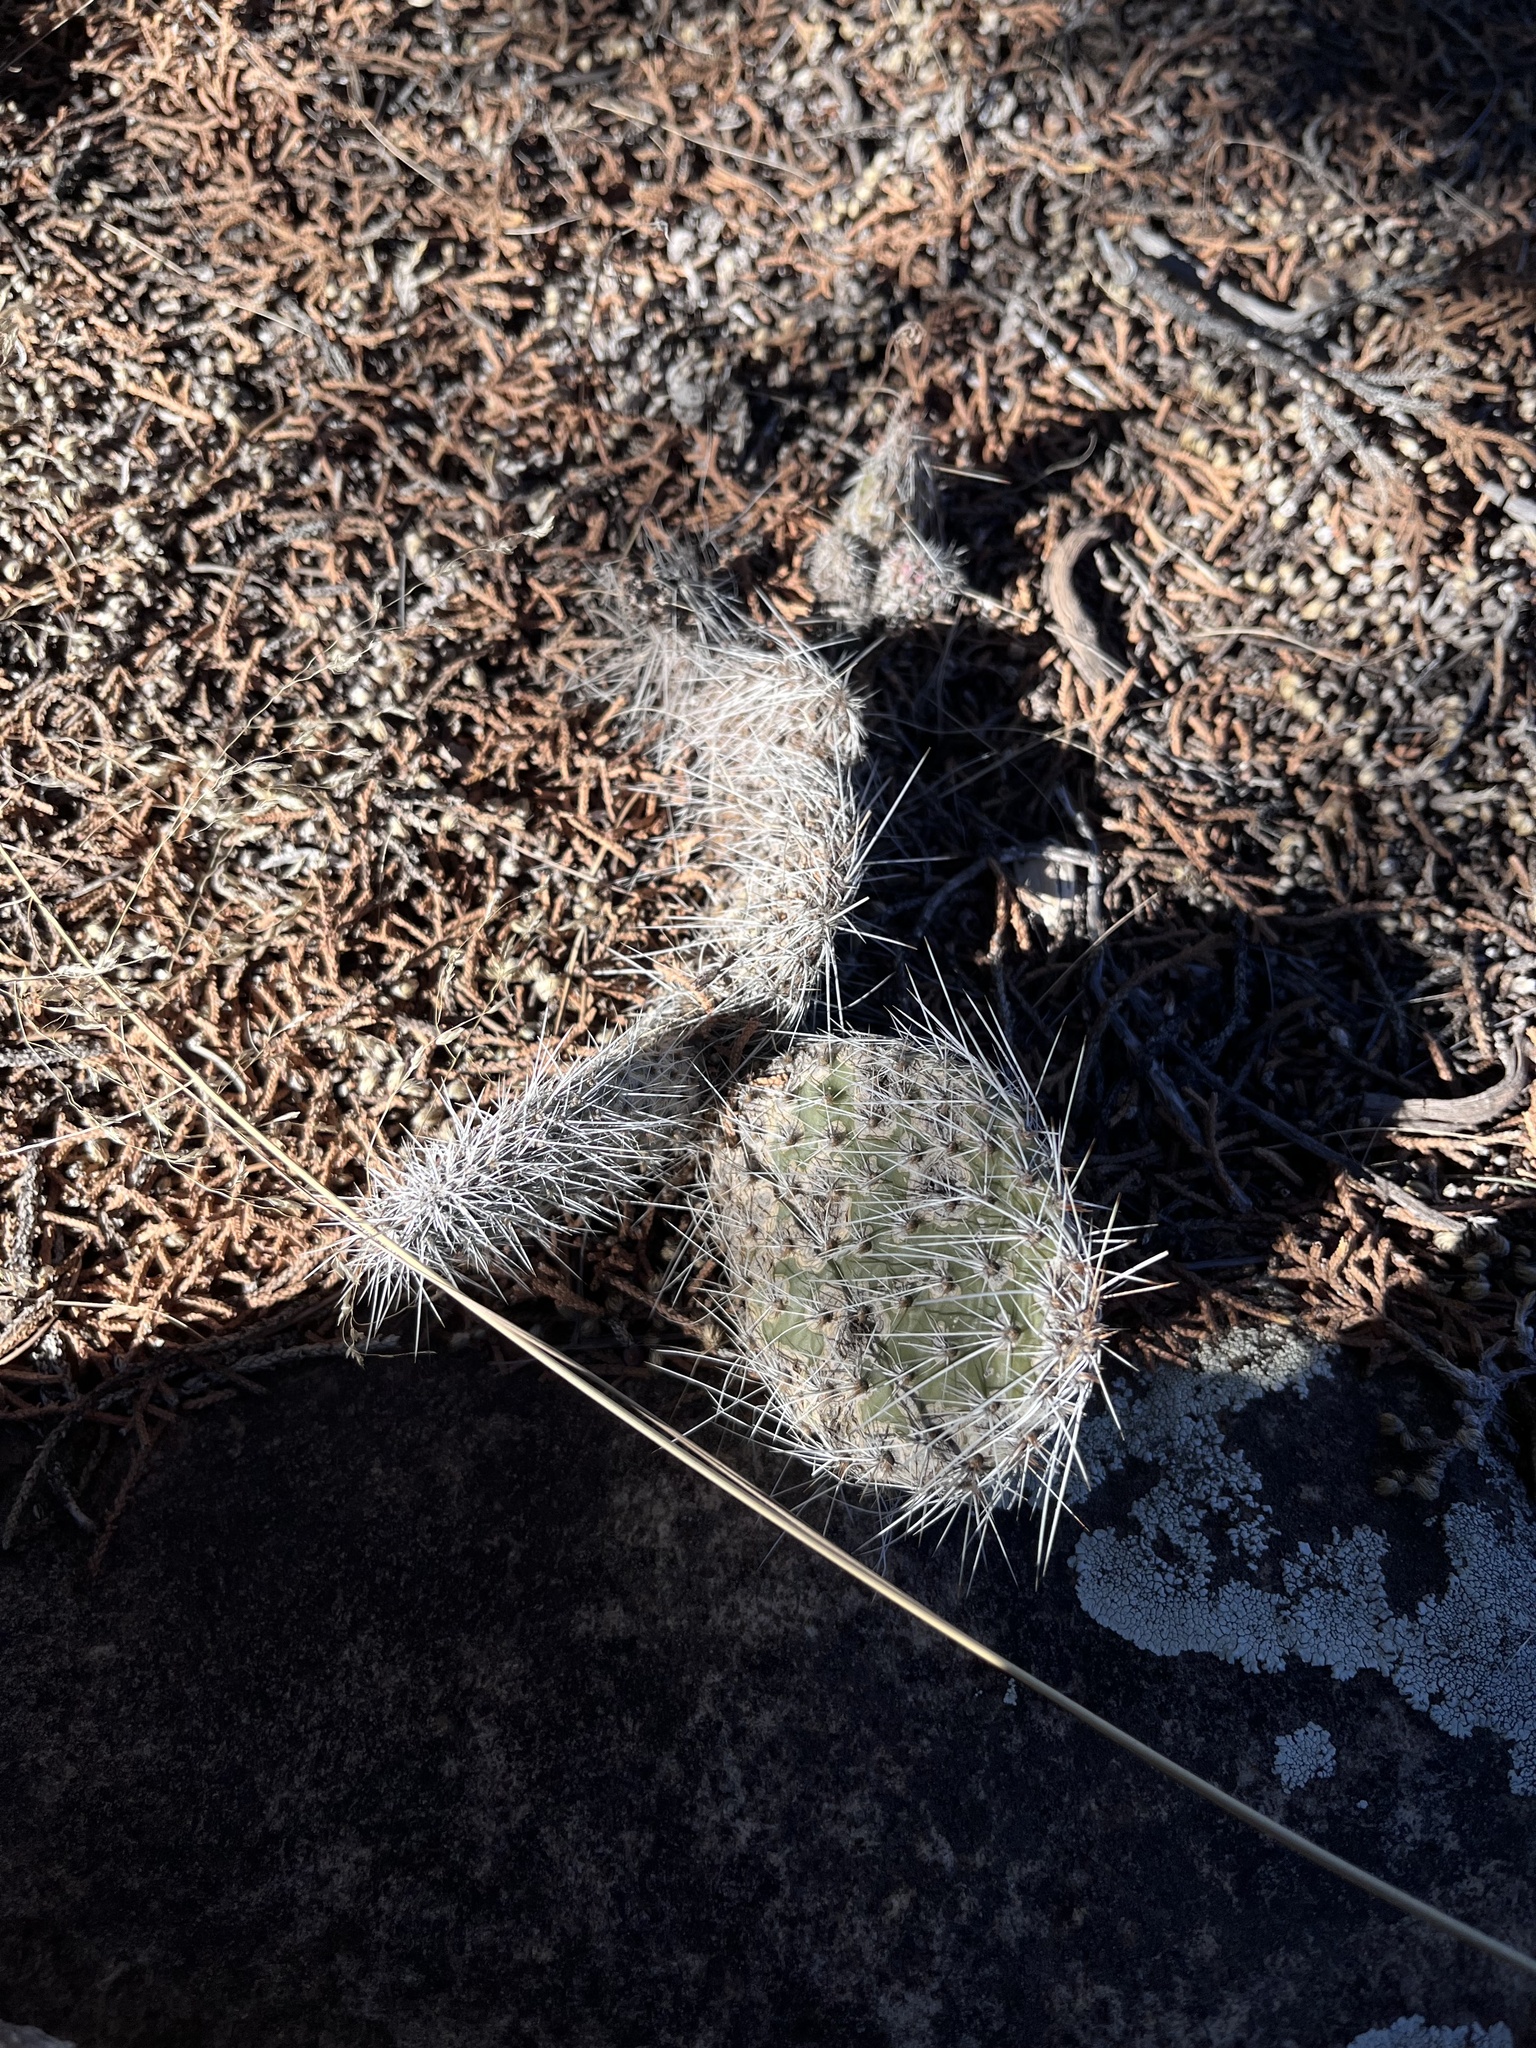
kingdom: Plantae
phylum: Tracheophyta
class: Magnoliopsida
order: Caryophyllales
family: Cactaceae
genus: Opuntia
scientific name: Opuntia polyacantha
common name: Plains prickly-pear
